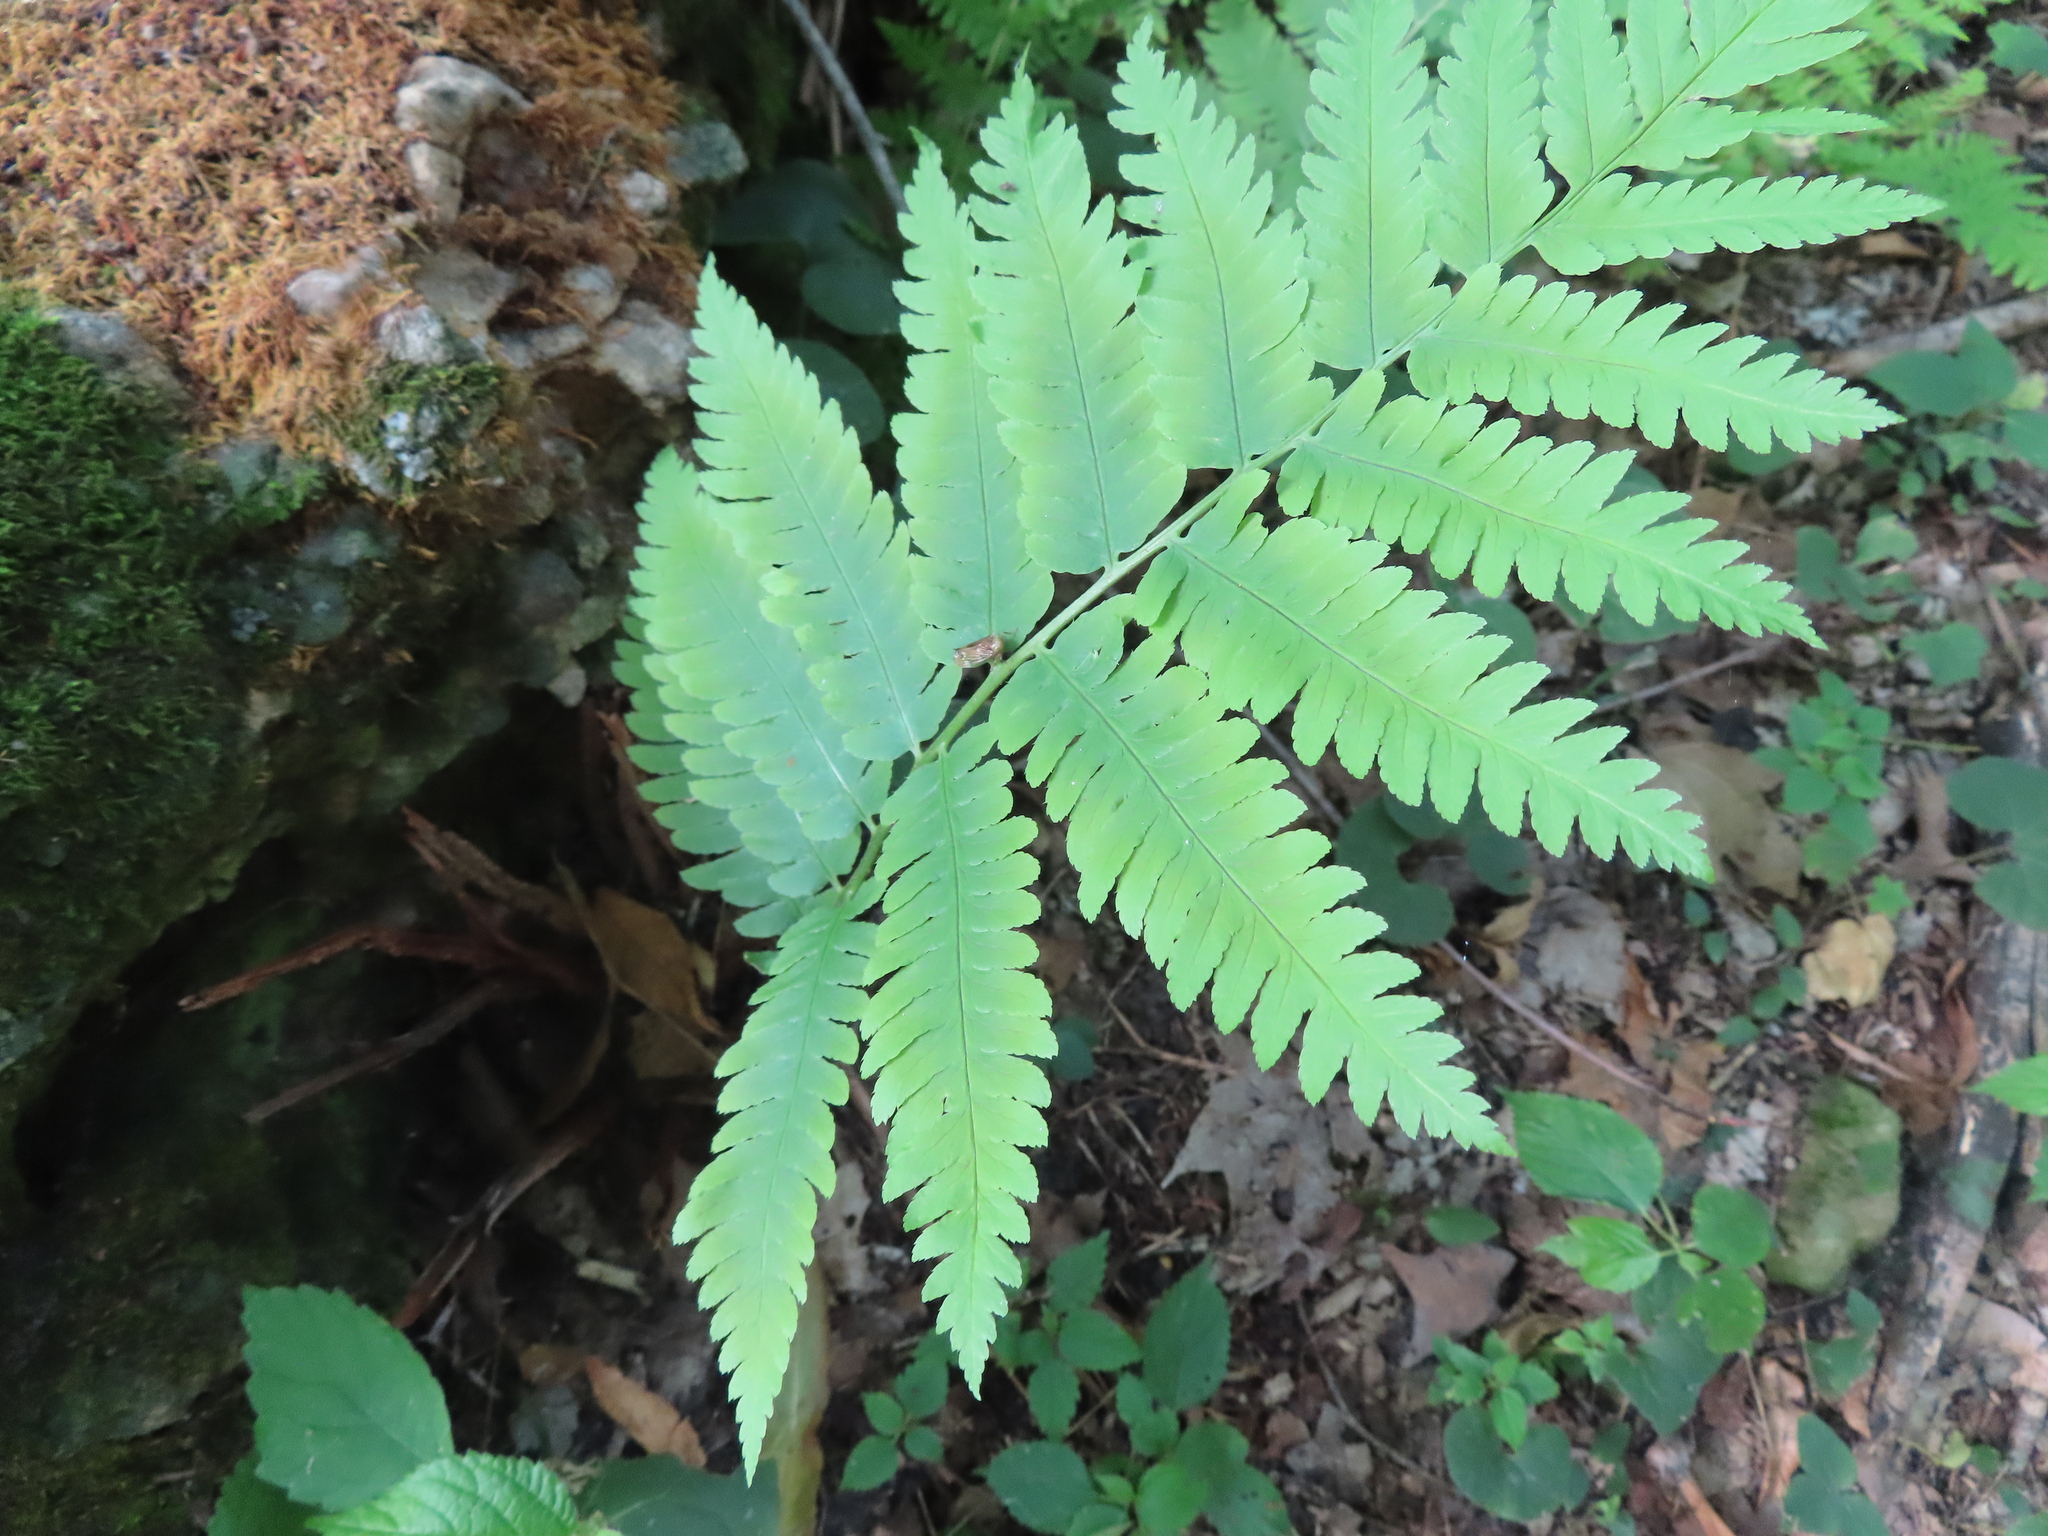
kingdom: Plantae
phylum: Tracheophyta
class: Polypodiopsida
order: Polypodiales
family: Dryopteridaceae
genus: Dryopteris
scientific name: Dryopteris goldieana
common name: Goldie's fern
